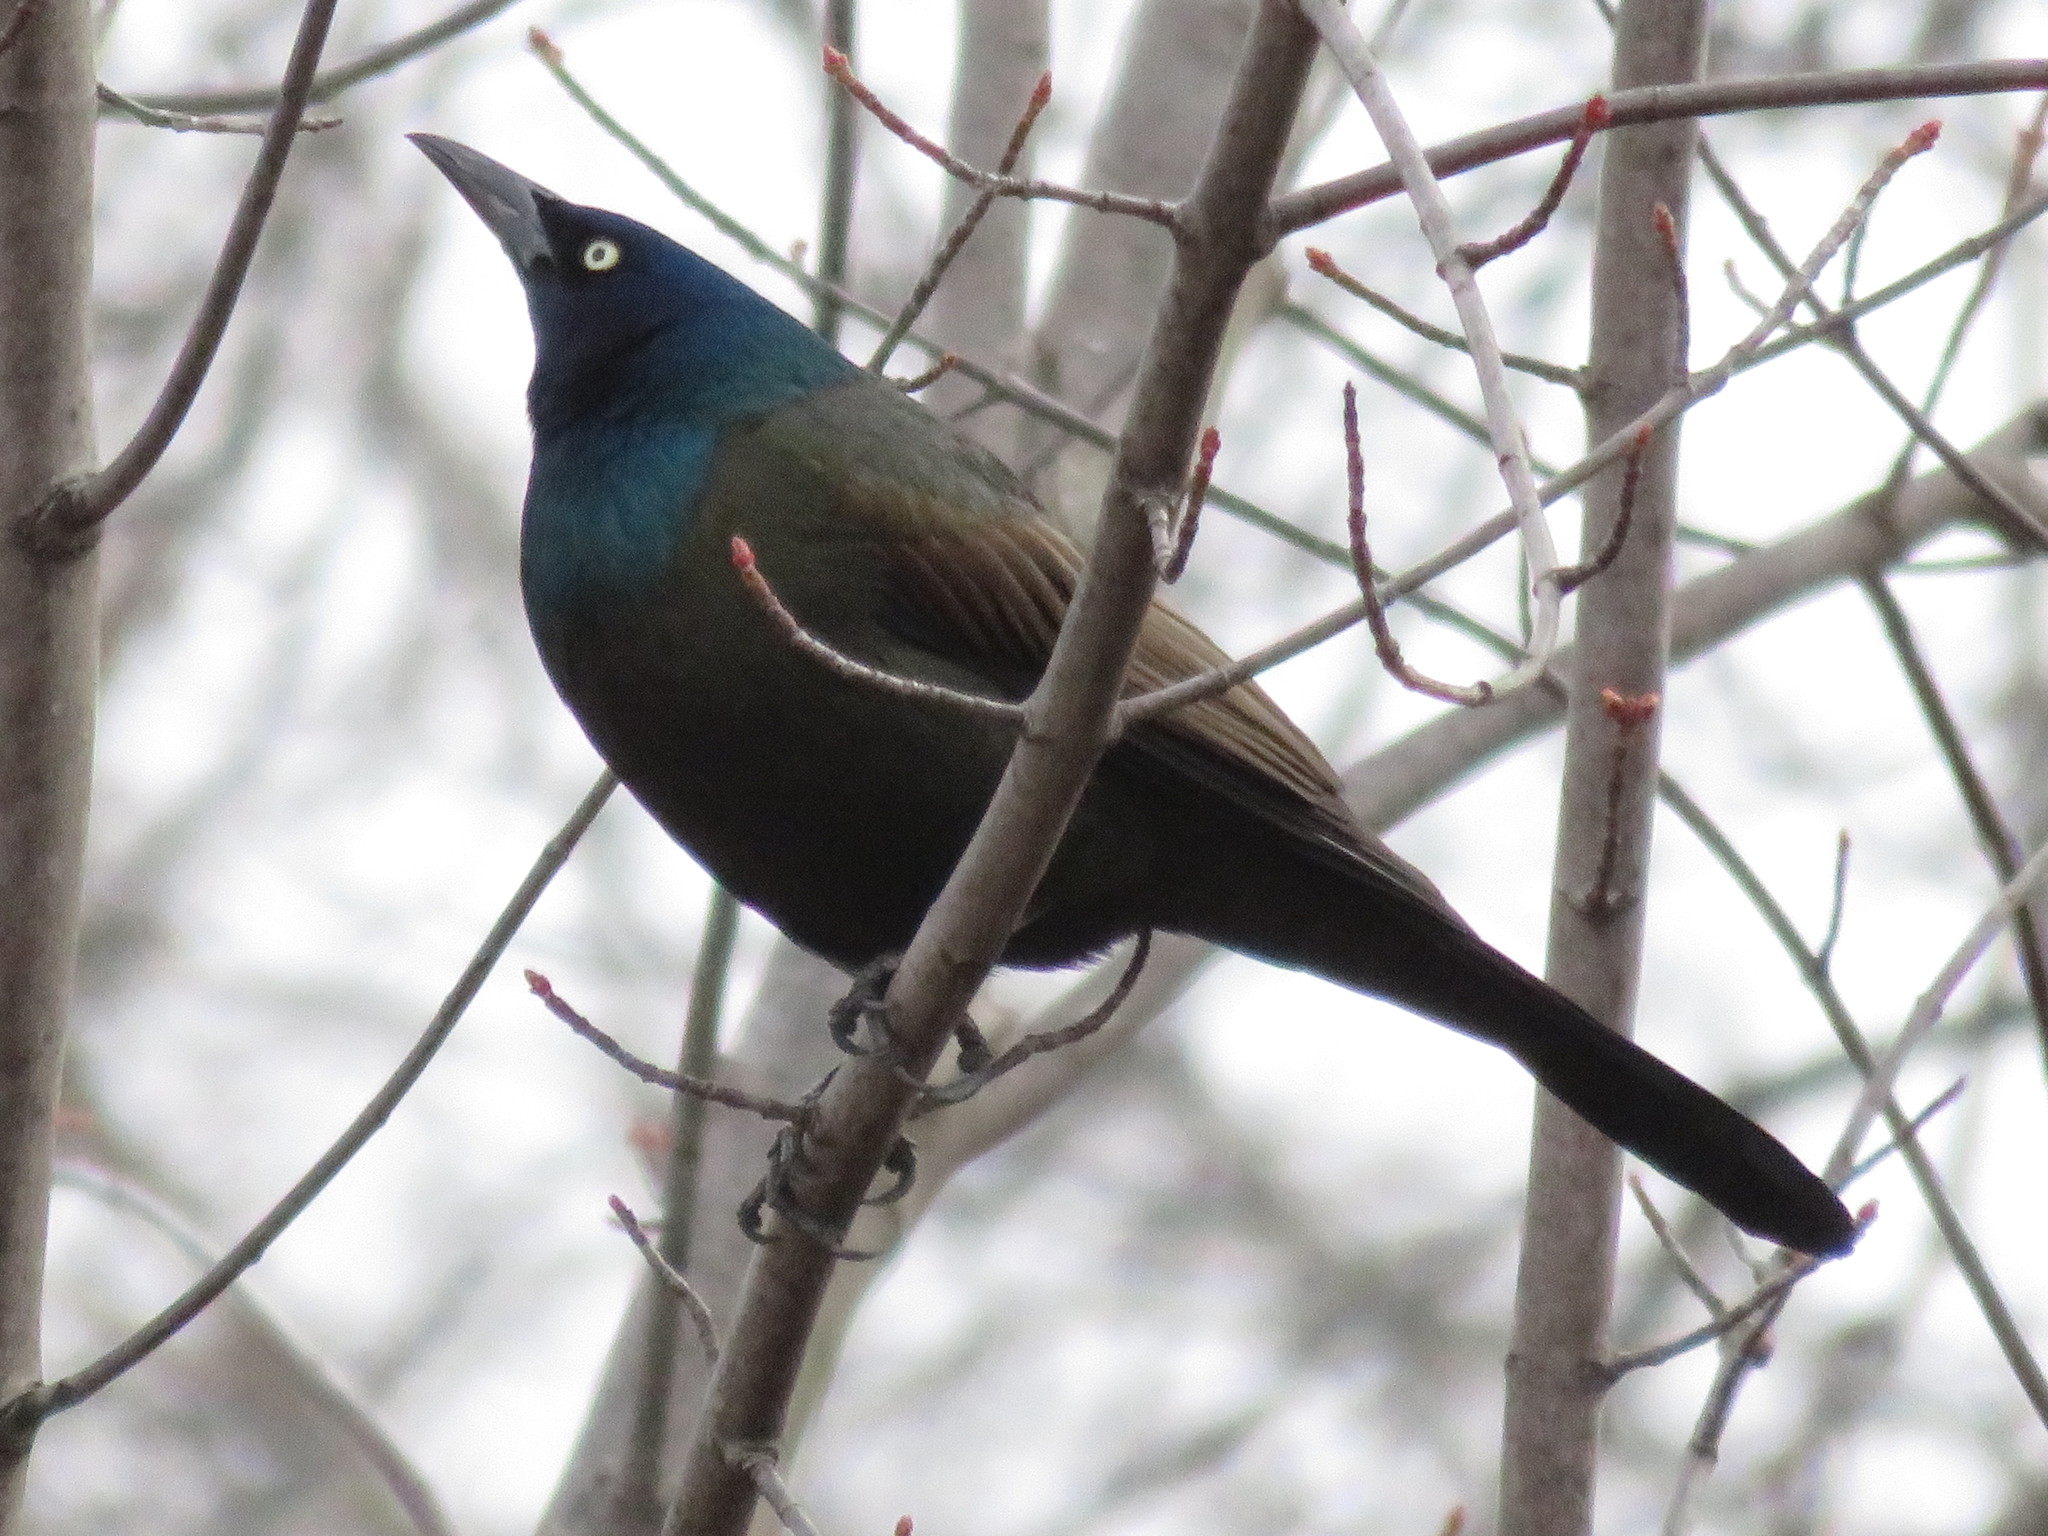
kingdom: Animalia
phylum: Chordata
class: Aves
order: Passeriformes
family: Icteridae
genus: Quiscalus
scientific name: Quiscalus quiscula
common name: Common grackle
